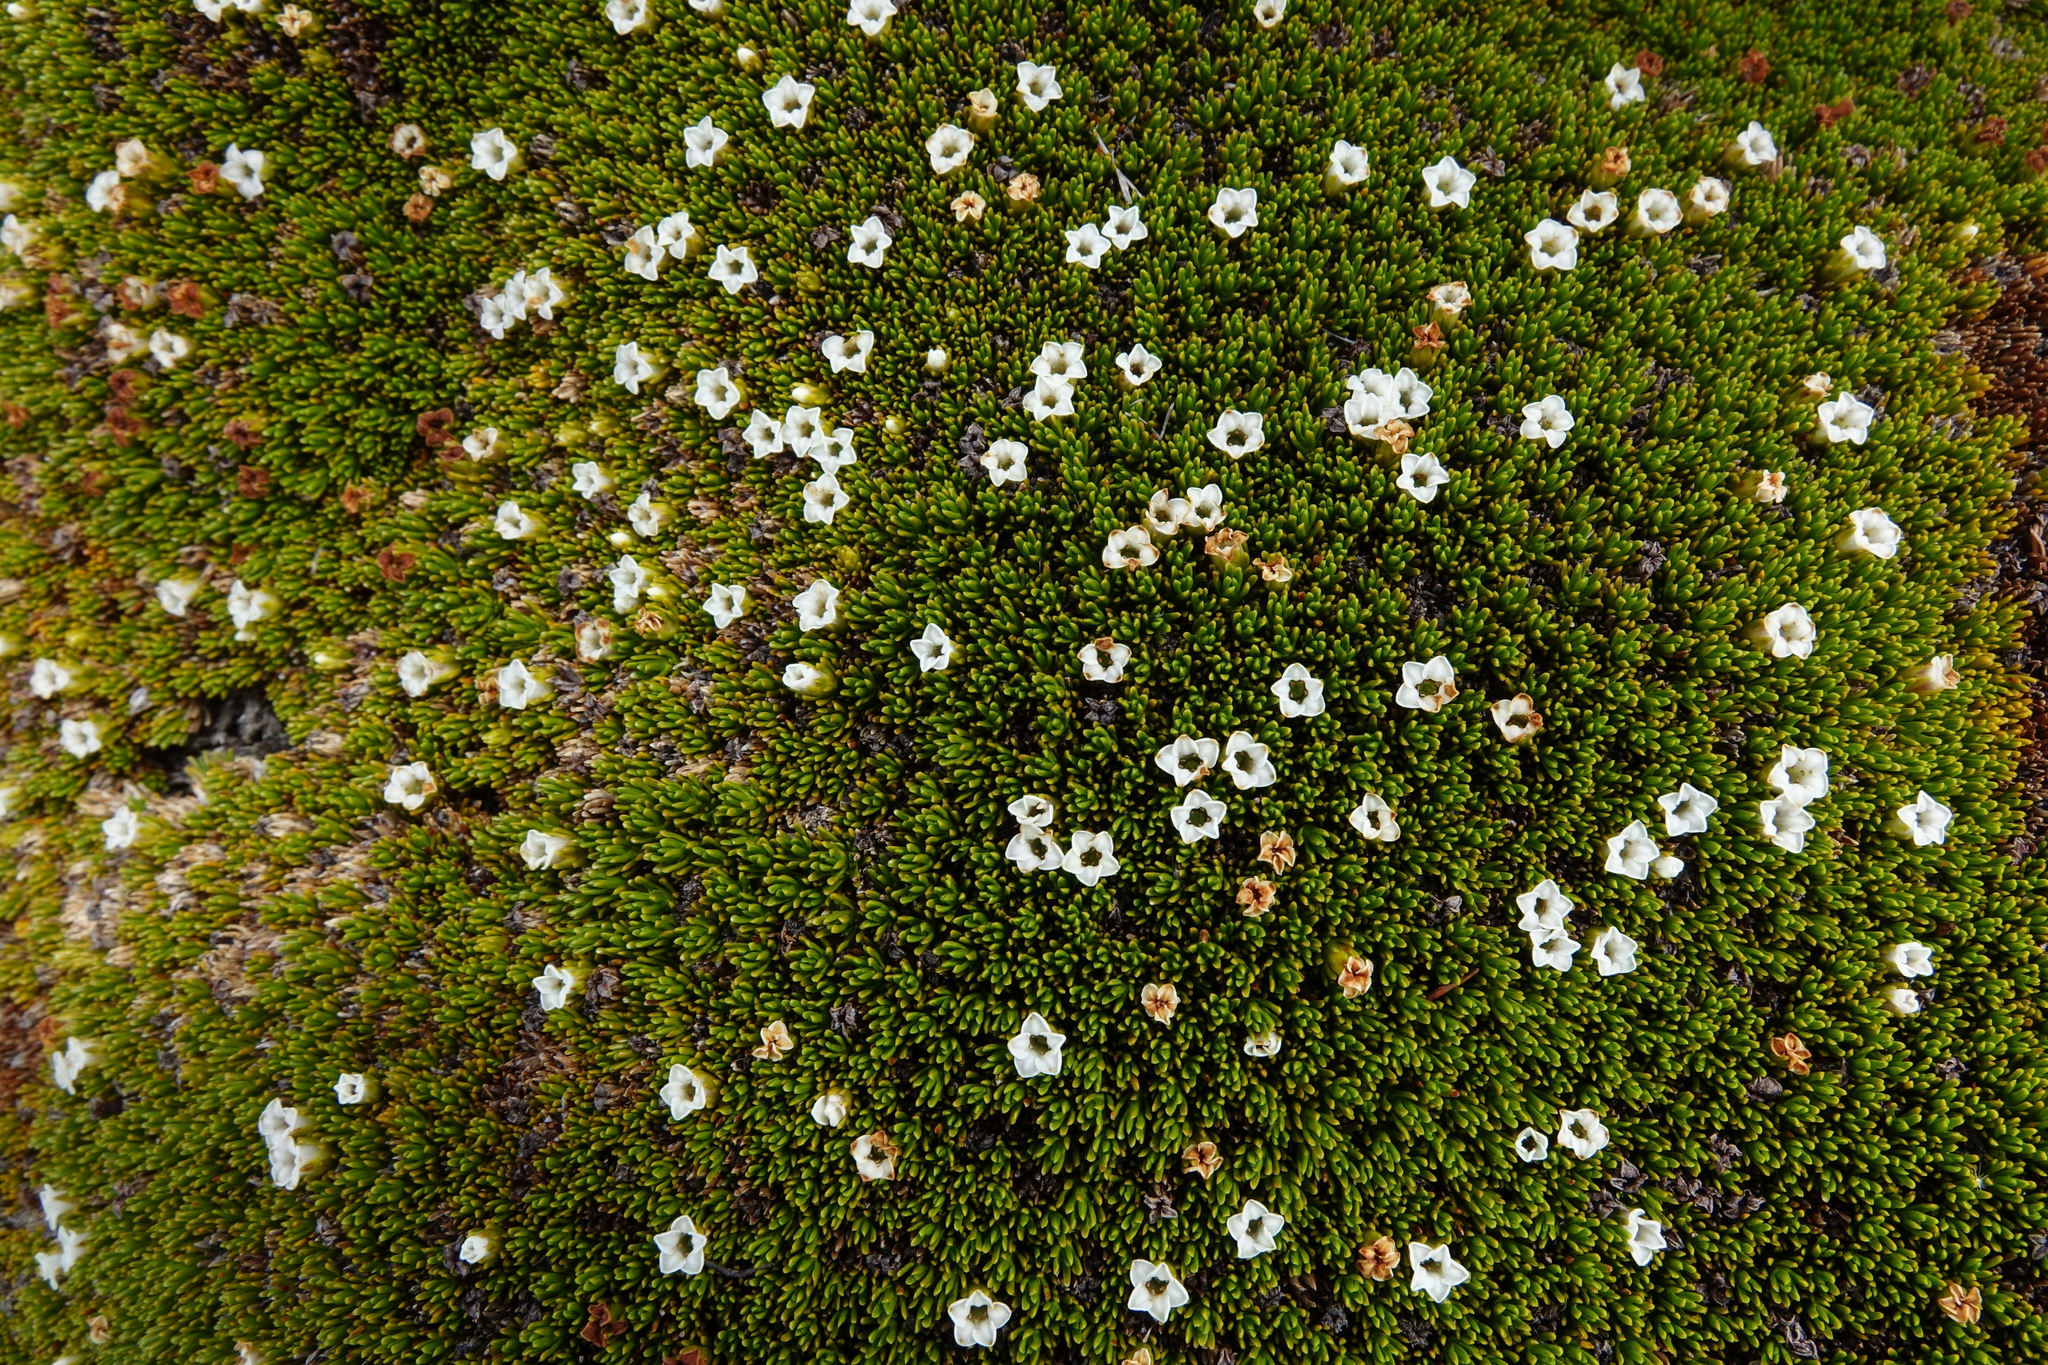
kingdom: Plantae
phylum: Tracheophyta
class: Magnoliopsida
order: Ericales
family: Ericaceae
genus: Dracophyllum
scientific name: Dracophyllum muscoides
